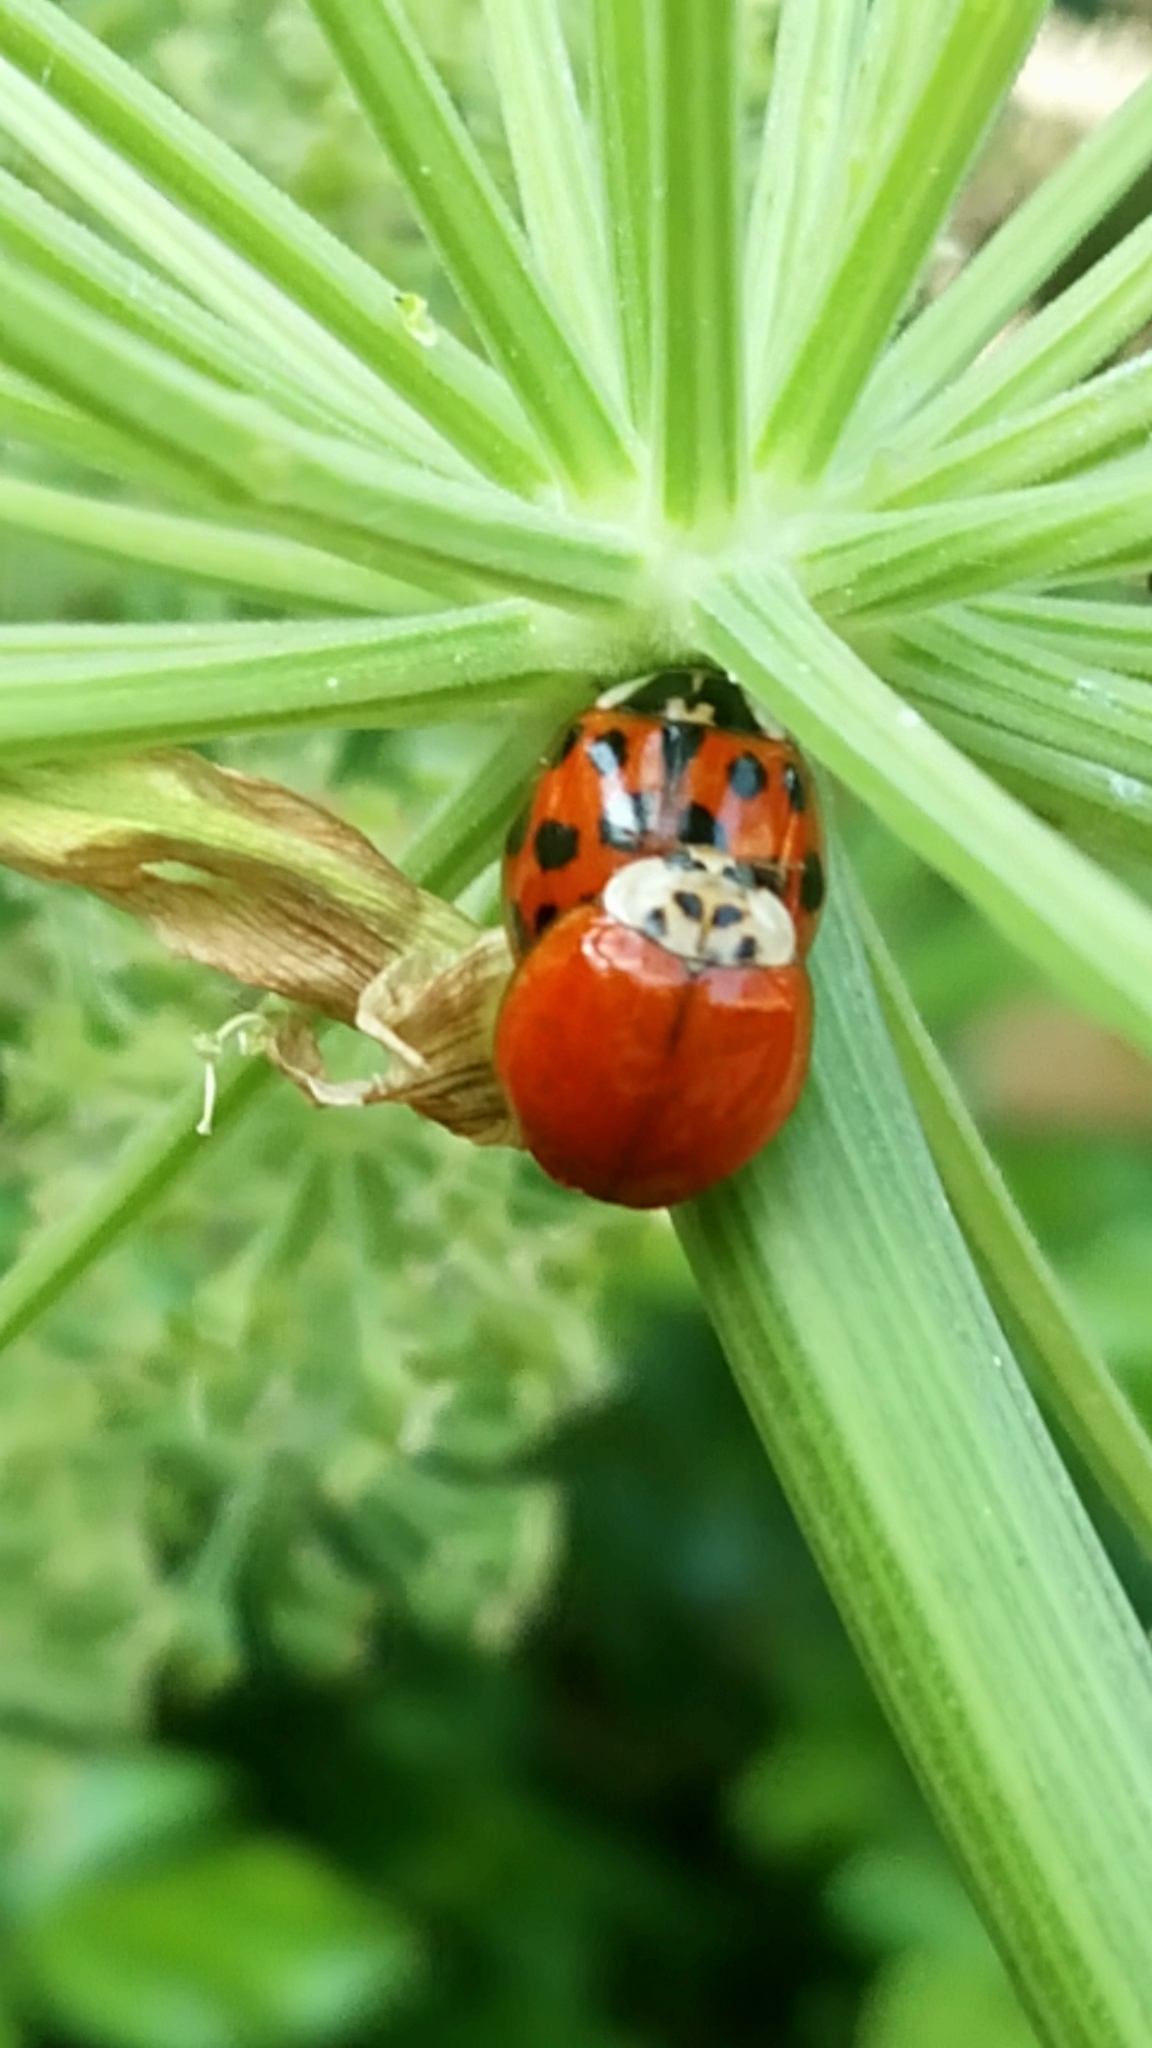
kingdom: Animalia
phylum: Arthropoda
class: Insecta
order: Coleoptera
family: Coccinellidae
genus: Harmonia
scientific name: Harmonia axyridis
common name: Harlequin ladybird
